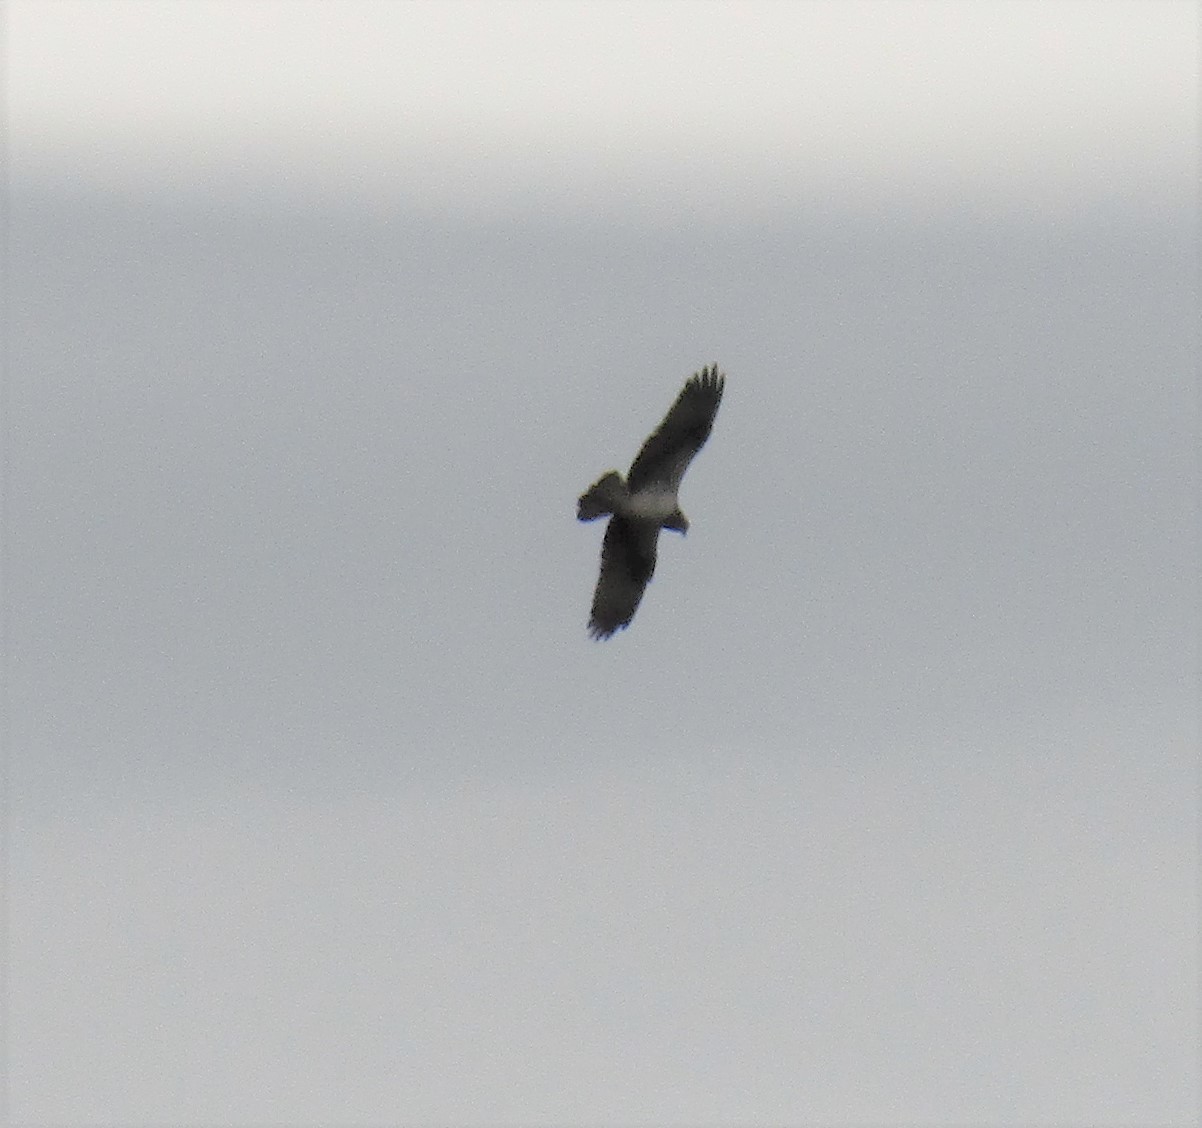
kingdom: Animalia
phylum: Chordata
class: Aves
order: Accipitriformes
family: Pandionidae
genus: Pandion
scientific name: Pandion haliaetus
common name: Osprey
